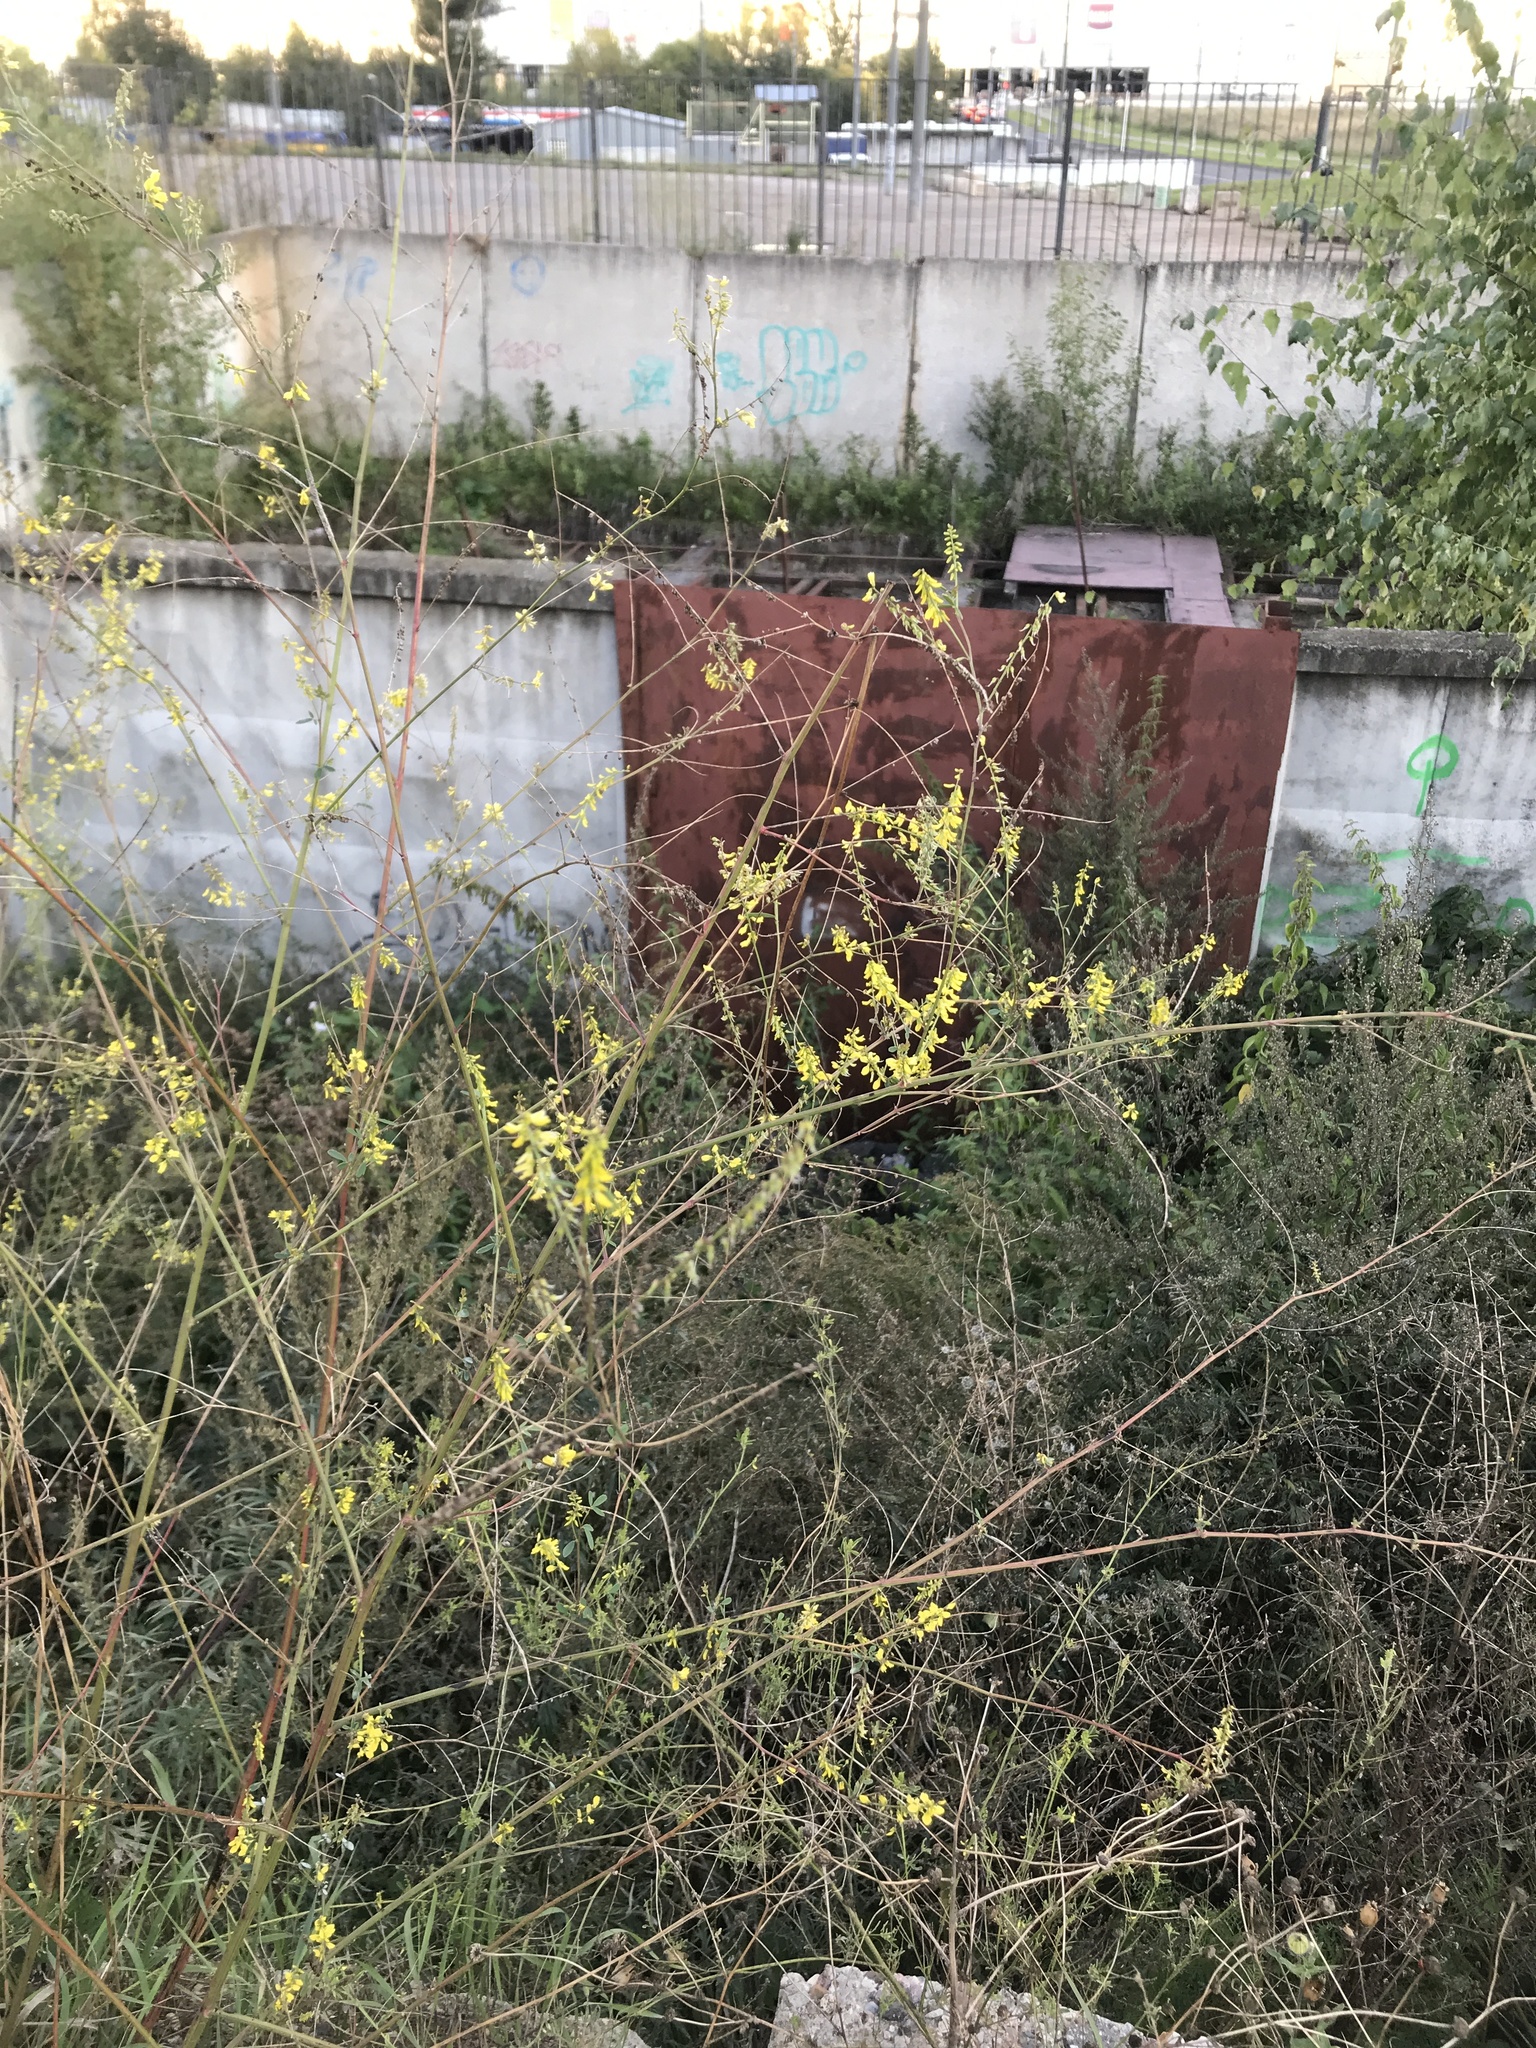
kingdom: Plantae
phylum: Tracheophyta
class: Magnoliopsida
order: Fabales
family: Fabaceae
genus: Melilotus
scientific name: Melilotus officinalis
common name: Sweetclover
